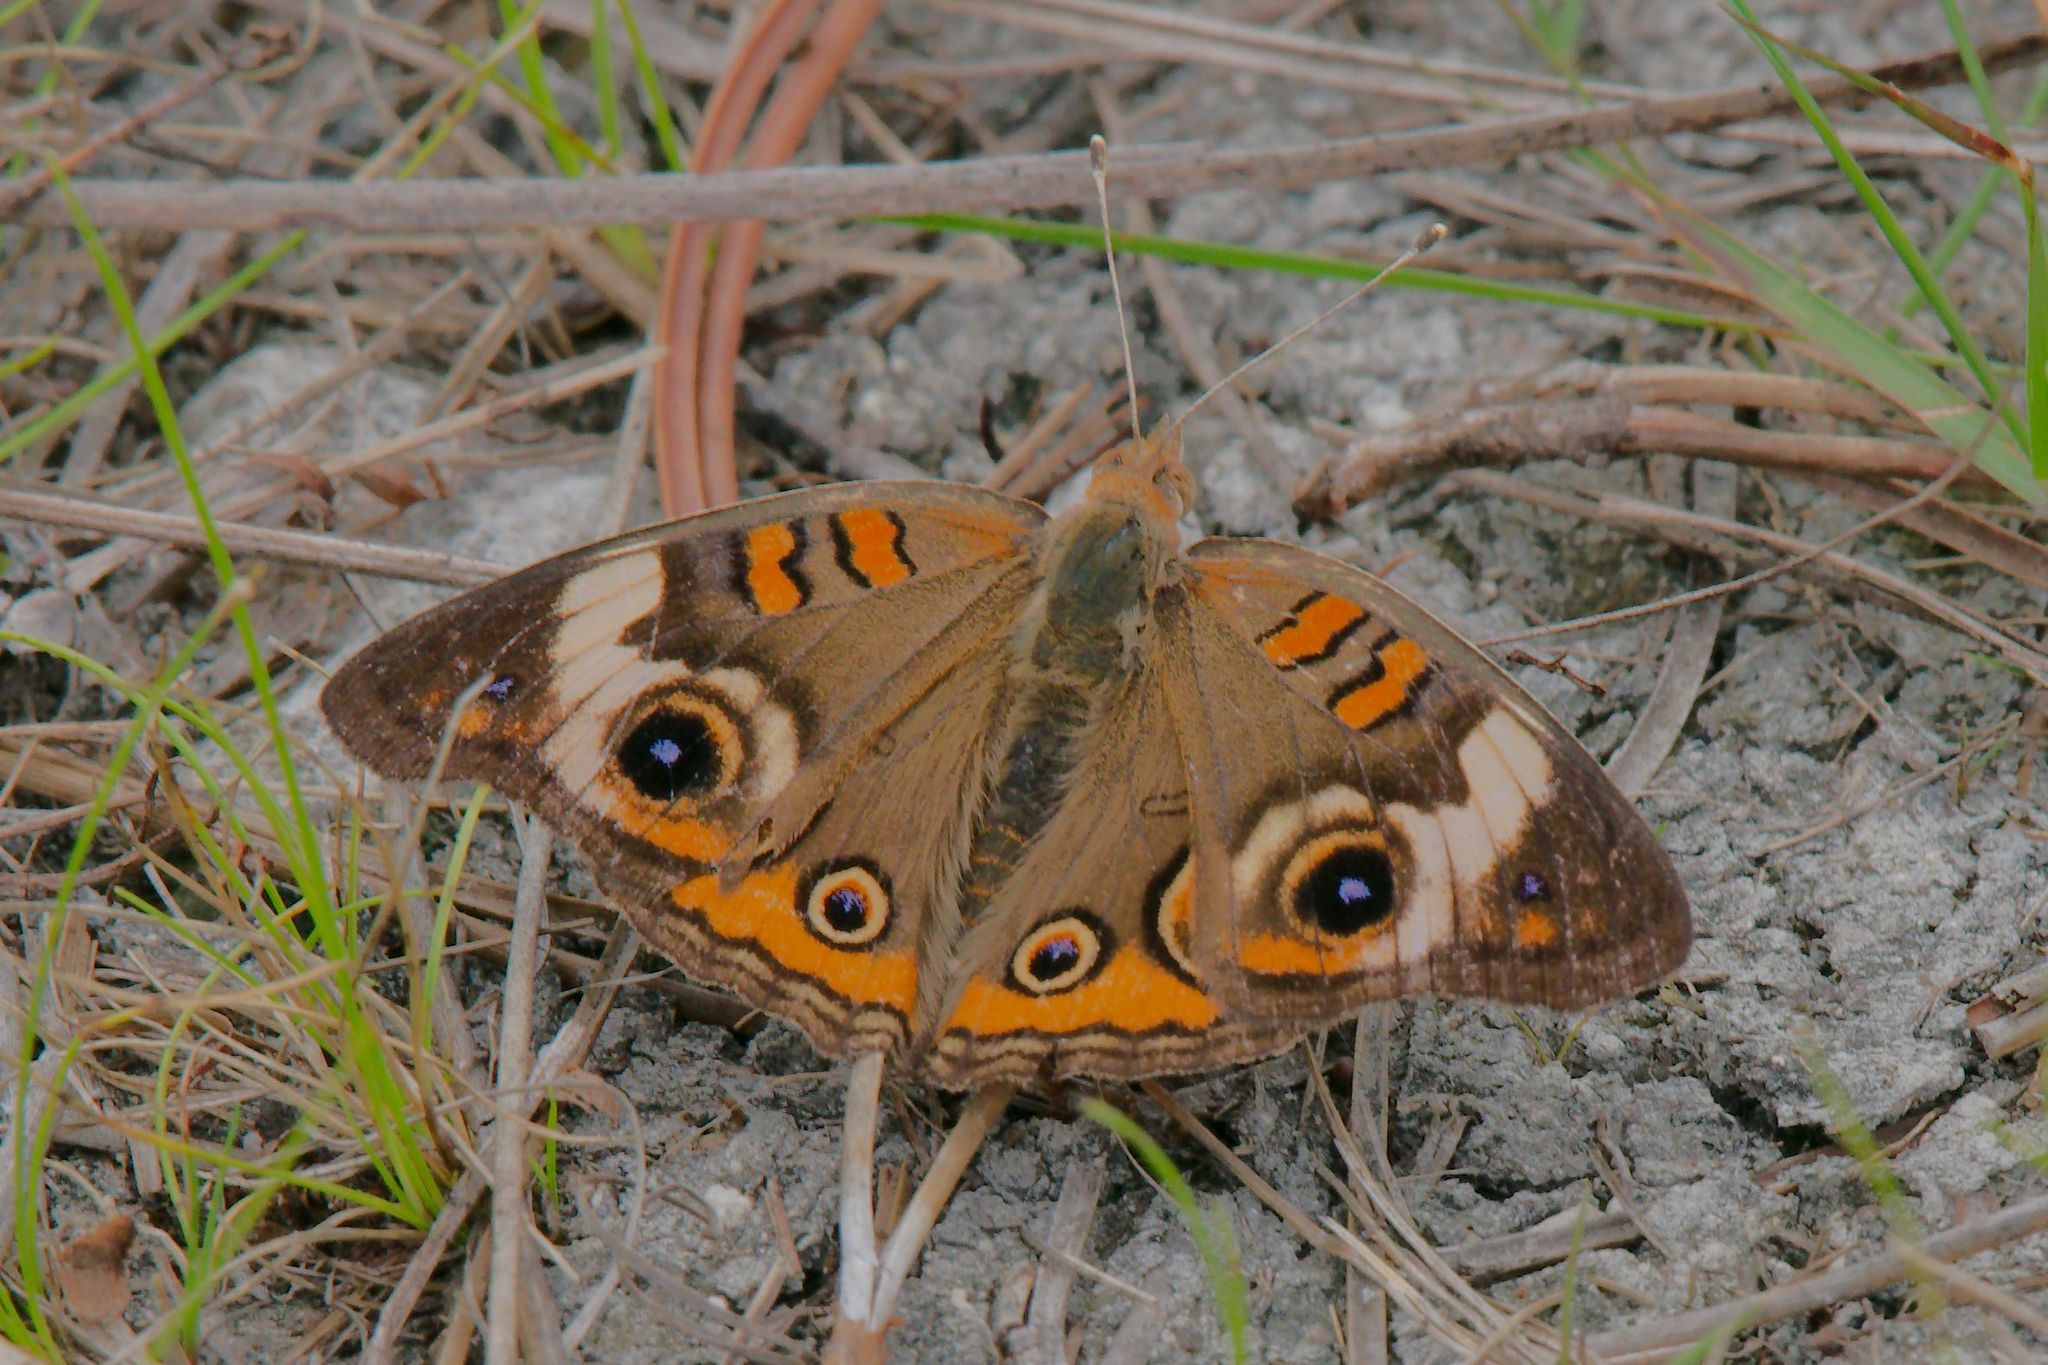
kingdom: Animalia
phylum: Arthropoda
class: Insecta
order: Lepidoptera
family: Nymphalidae
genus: Junonia
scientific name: Junonia coenia
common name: Common buckeye
